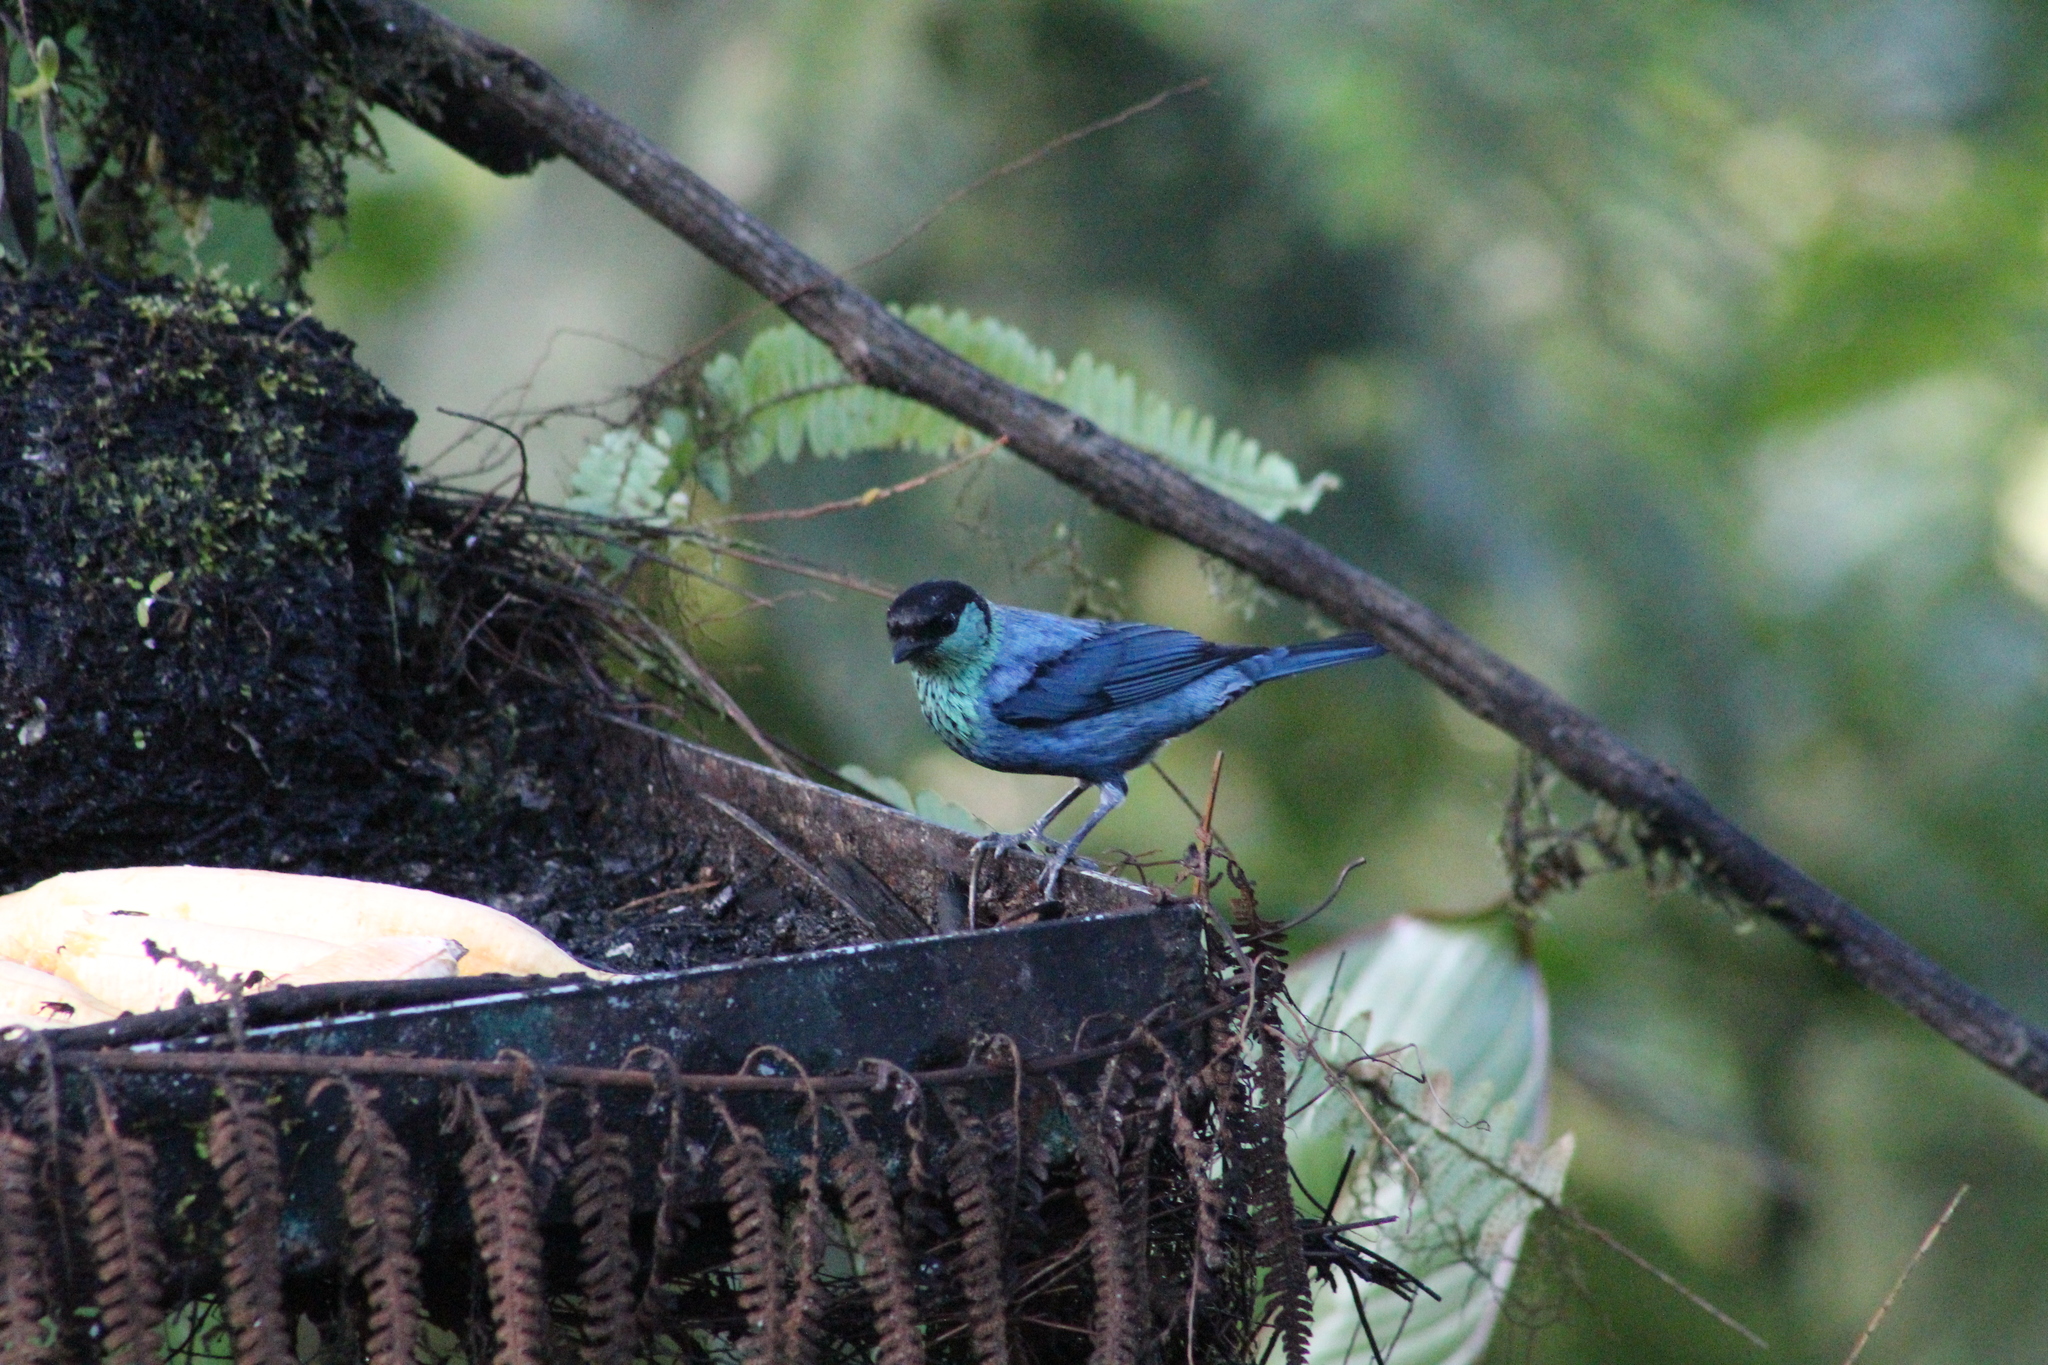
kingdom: Animalia
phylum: Chordata
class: Aves
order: Passeriformes
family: Thraupidae
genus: Stilpnia
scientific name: Stilpnia heinei
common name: Black-capped tanager
